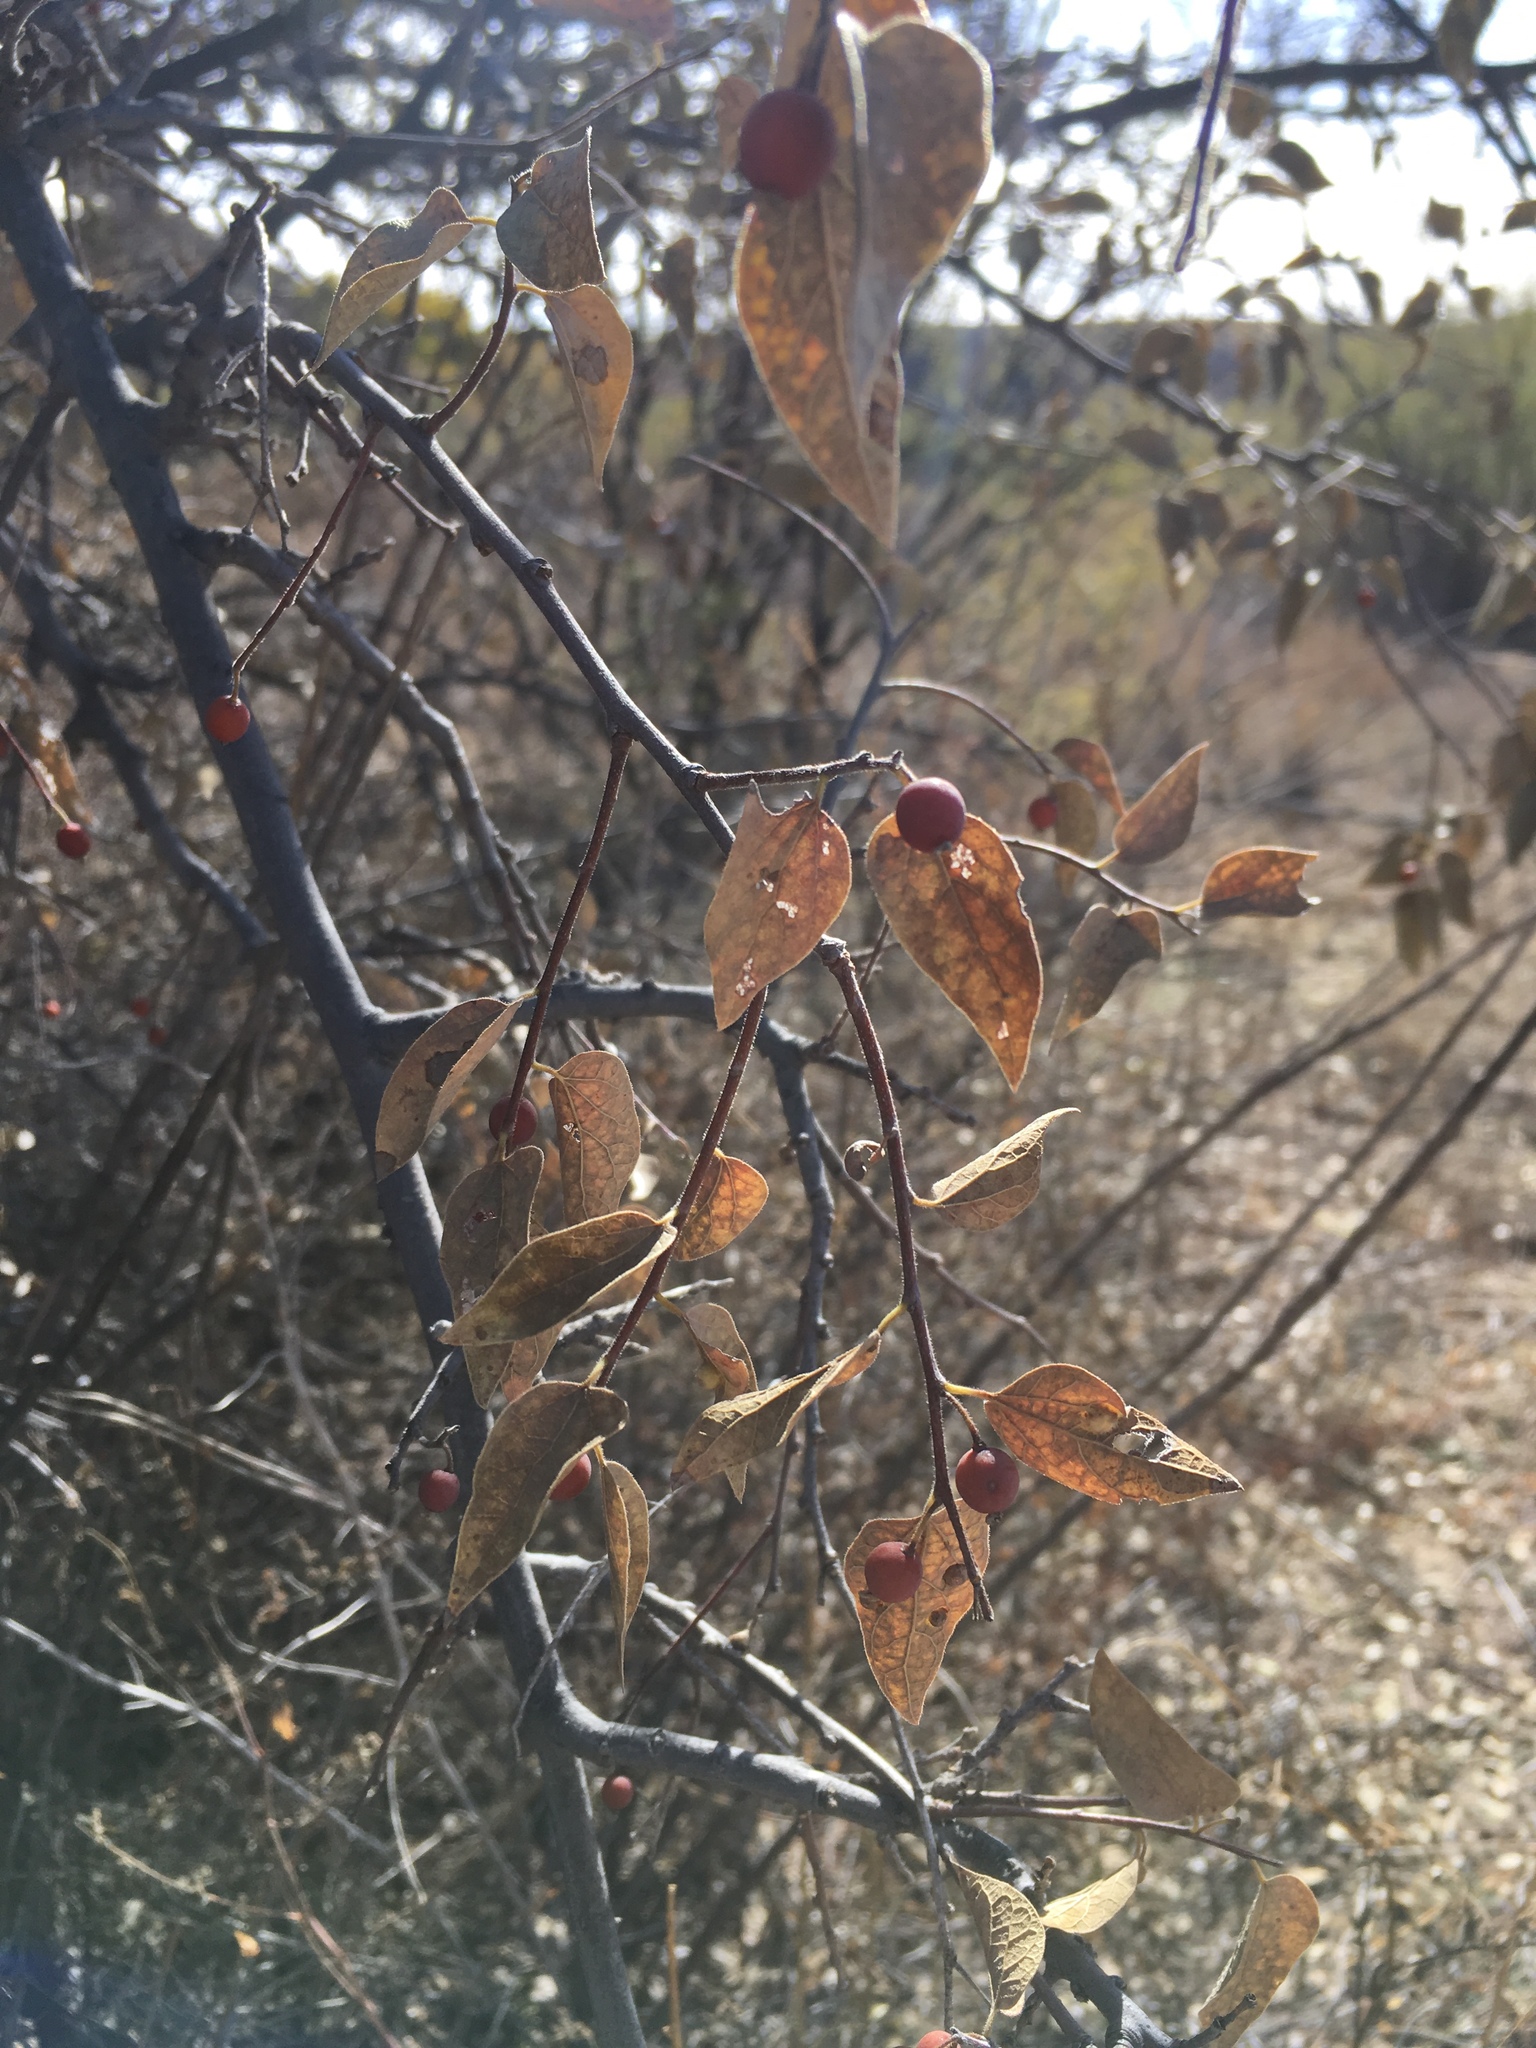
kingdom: Plantae
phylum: Tracheophyta
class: Magnoliopsida
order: Rosales
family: Cannabaceae
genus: Celtis
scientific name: Celtis reticulata
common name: Netleaf hackberry
